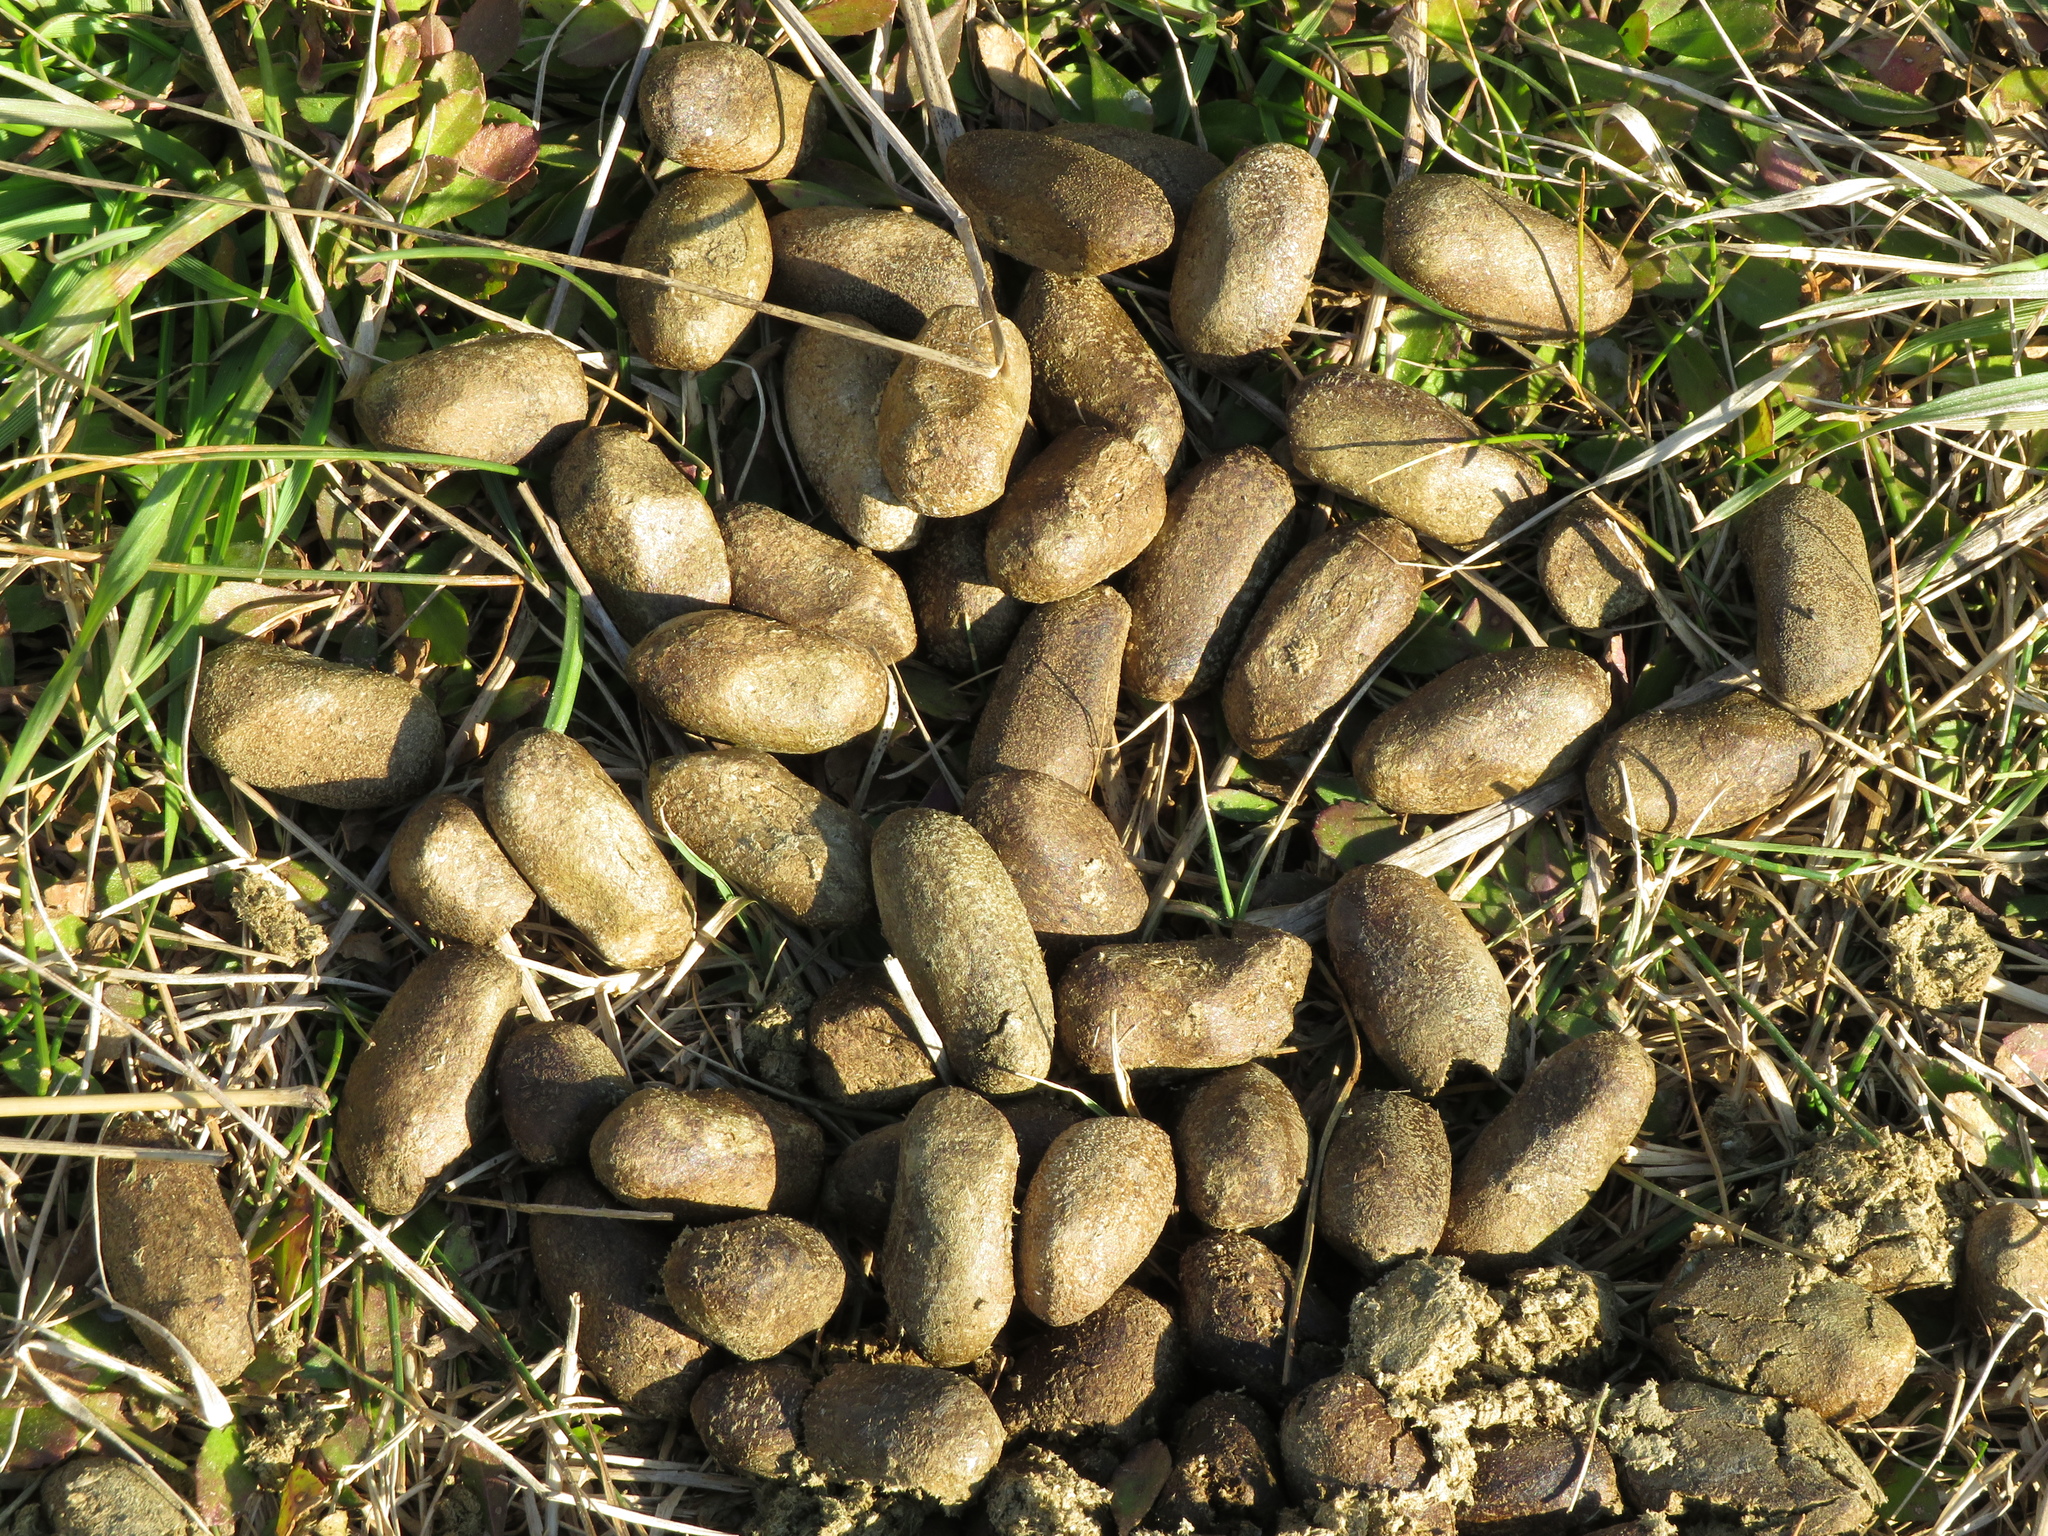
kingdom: Animalia
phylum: Chordata
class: Mammalia
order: Rodentia
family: Caviidae
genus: Hydrochoerus
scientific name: Hydrochoerus hydrochaeris
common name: Capybara
